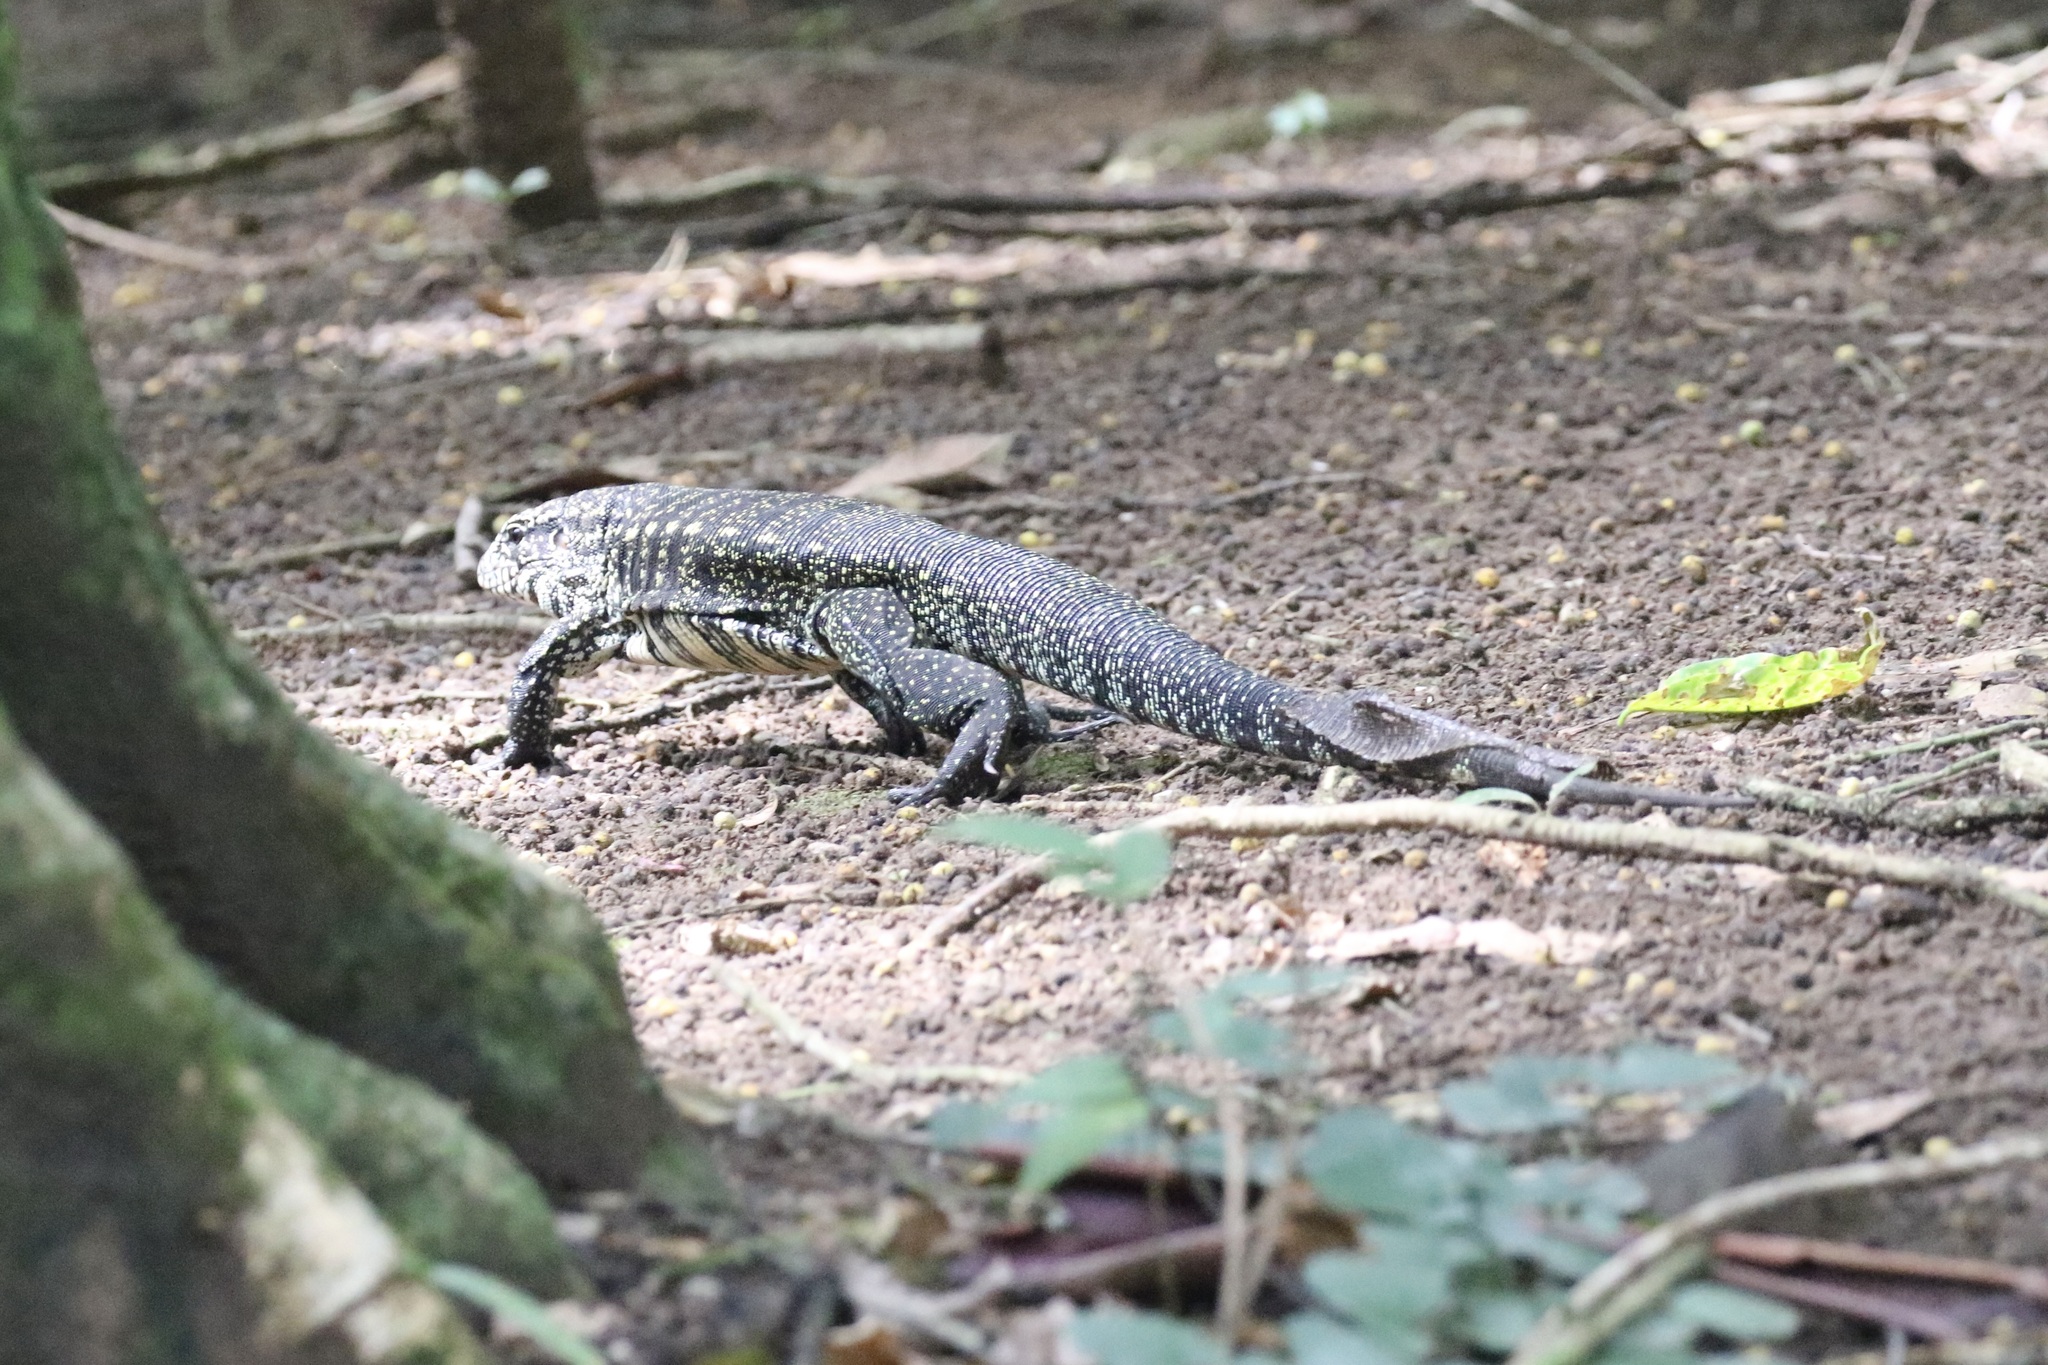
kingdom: Animalia
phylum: Chordata
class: Squamata
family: Teiidae
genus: Salvator
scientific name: Salvator merianae
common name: Argentine black and white tegu
